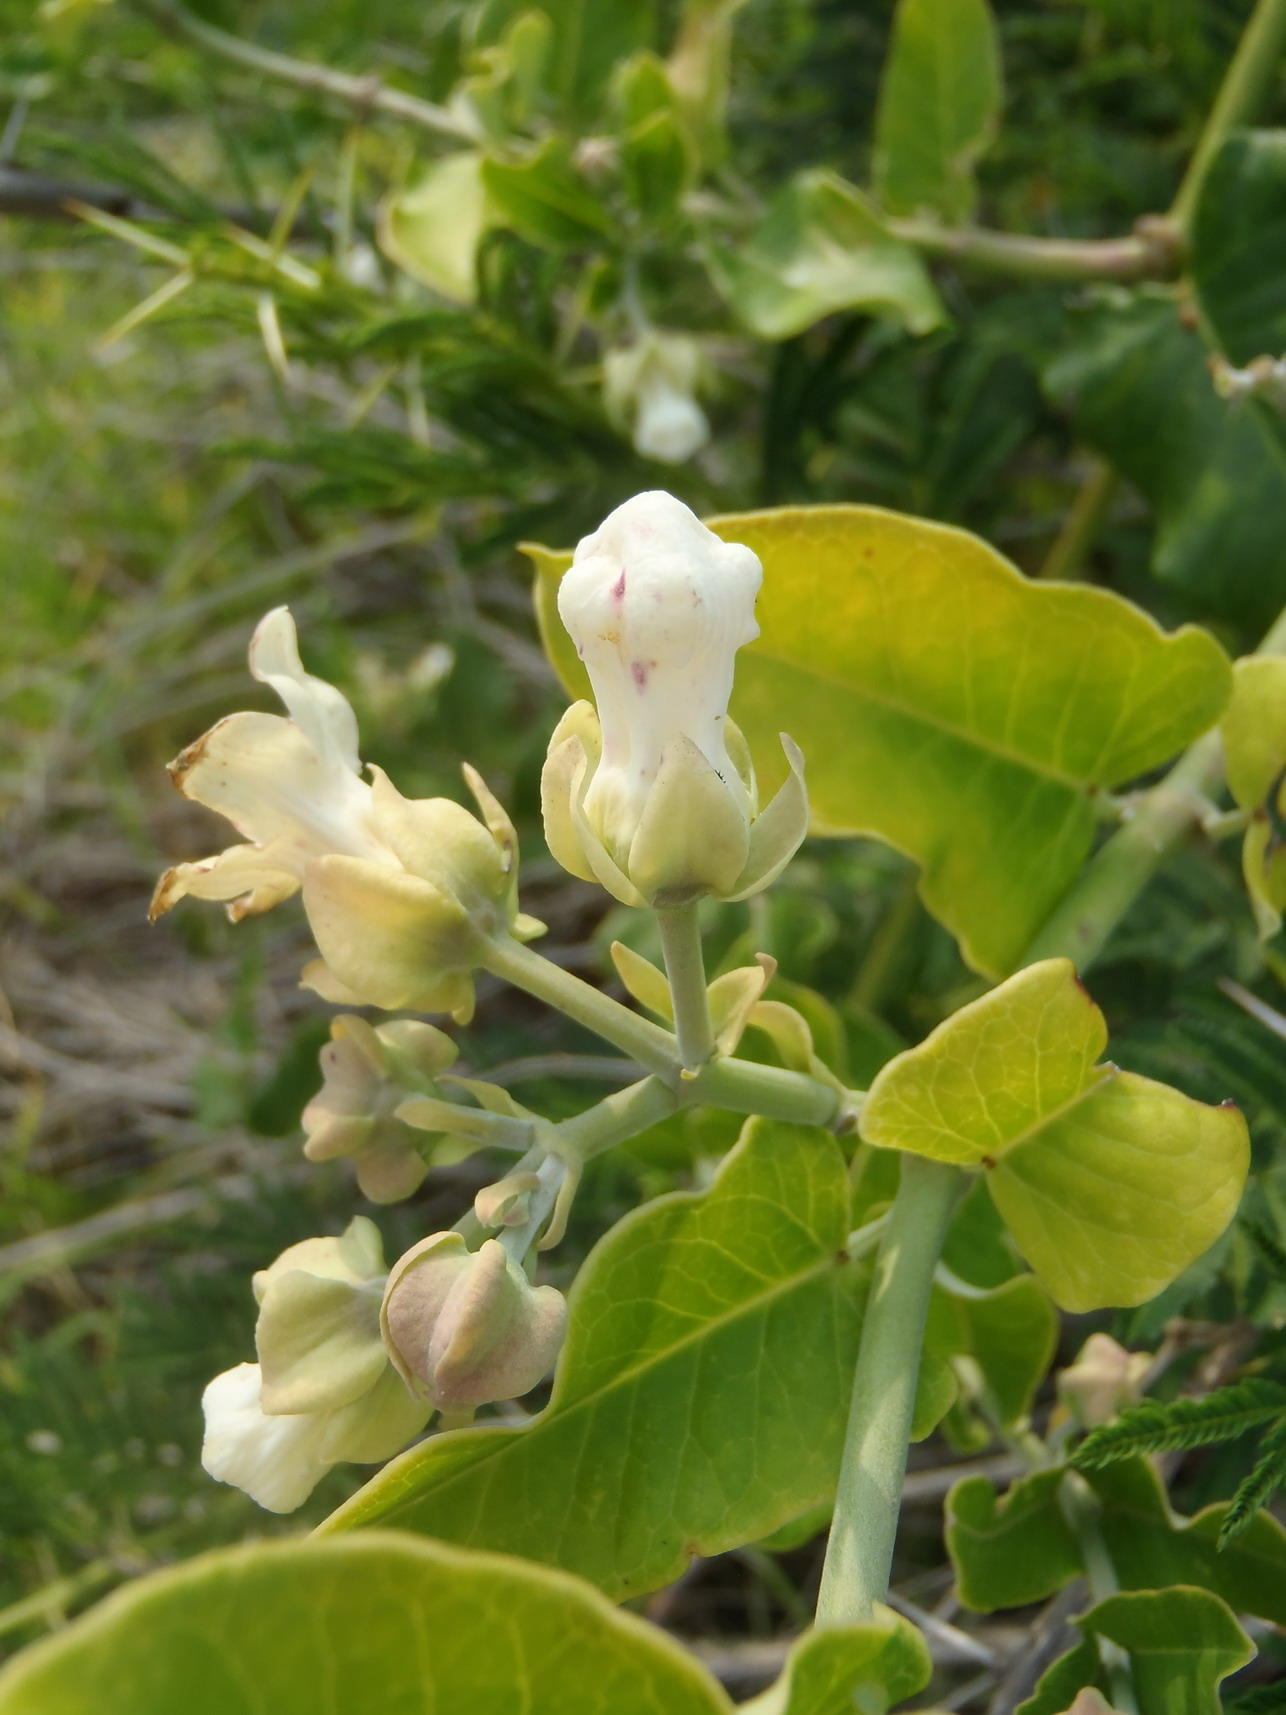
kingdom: Plantae
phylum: Tracheophyta
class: Magnoliopsida
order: Gentianales
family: Apocynaceae
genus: Araujia
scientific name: Araujia sericifera
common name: White bladderflower
